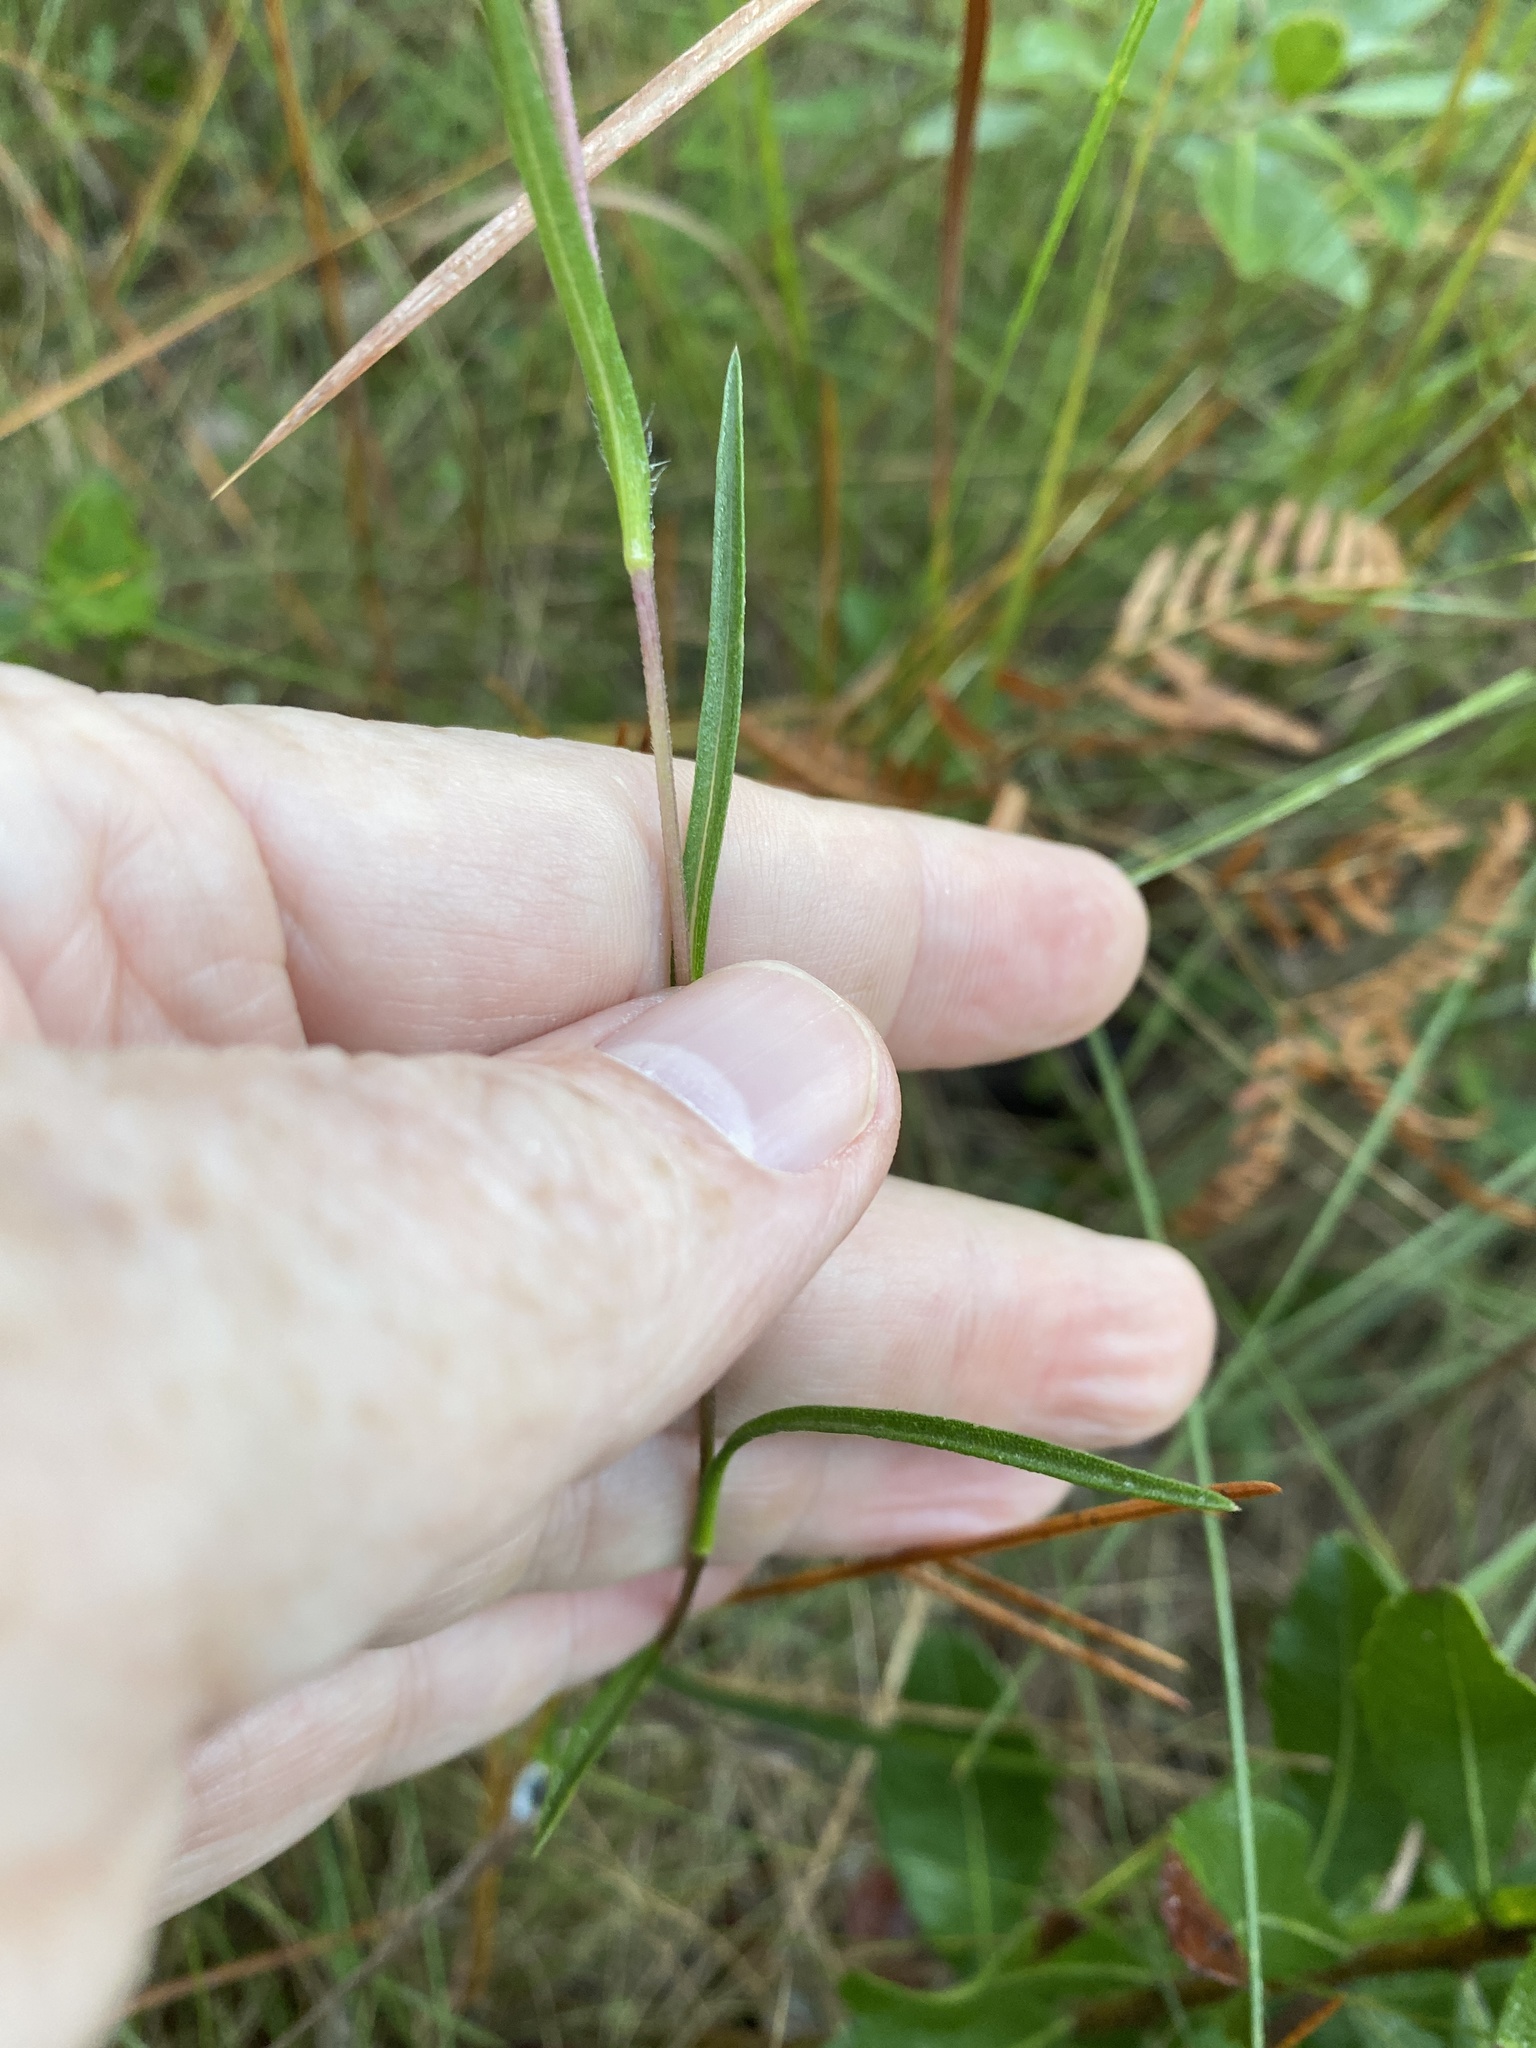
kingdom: Plantae
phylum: Tracheophyta
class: Magnoliopsida
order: Asterales
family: Asteraceae
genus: Eurybia
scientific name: Eurybia paludosa
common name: Southern swamp aster
